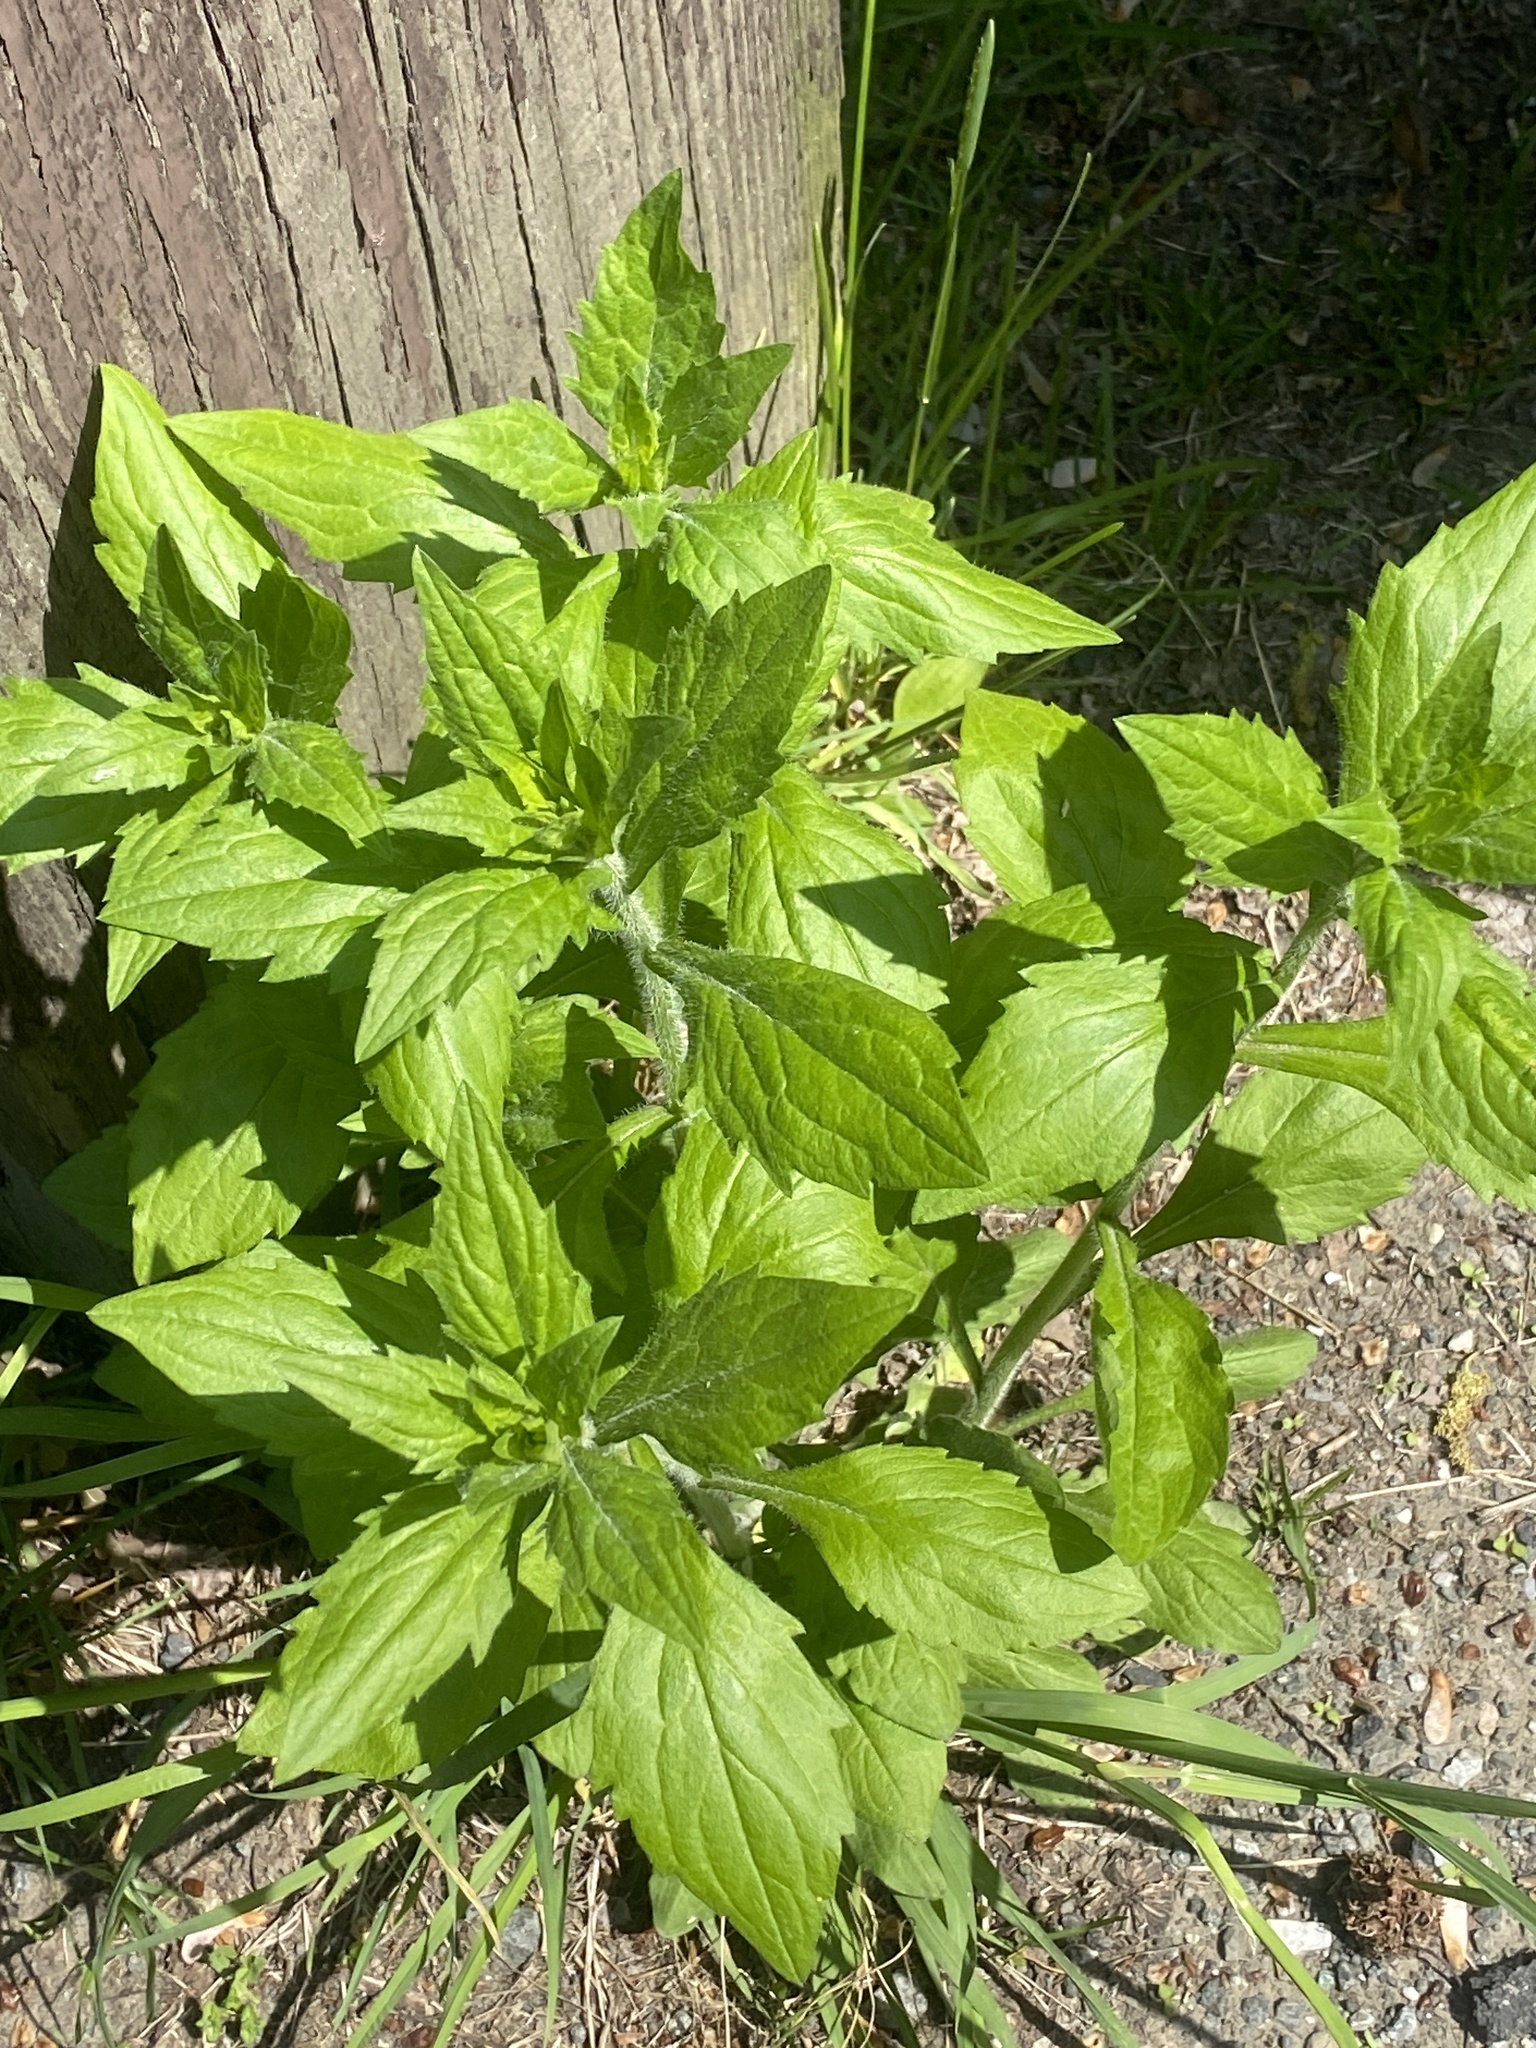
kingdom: Plantae
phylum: Tracheophyta
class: Magnoliopsida
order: Asterales
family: Asteraceae
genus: Erigeron
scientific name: Erigeron annuus
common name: Tall fleabane
